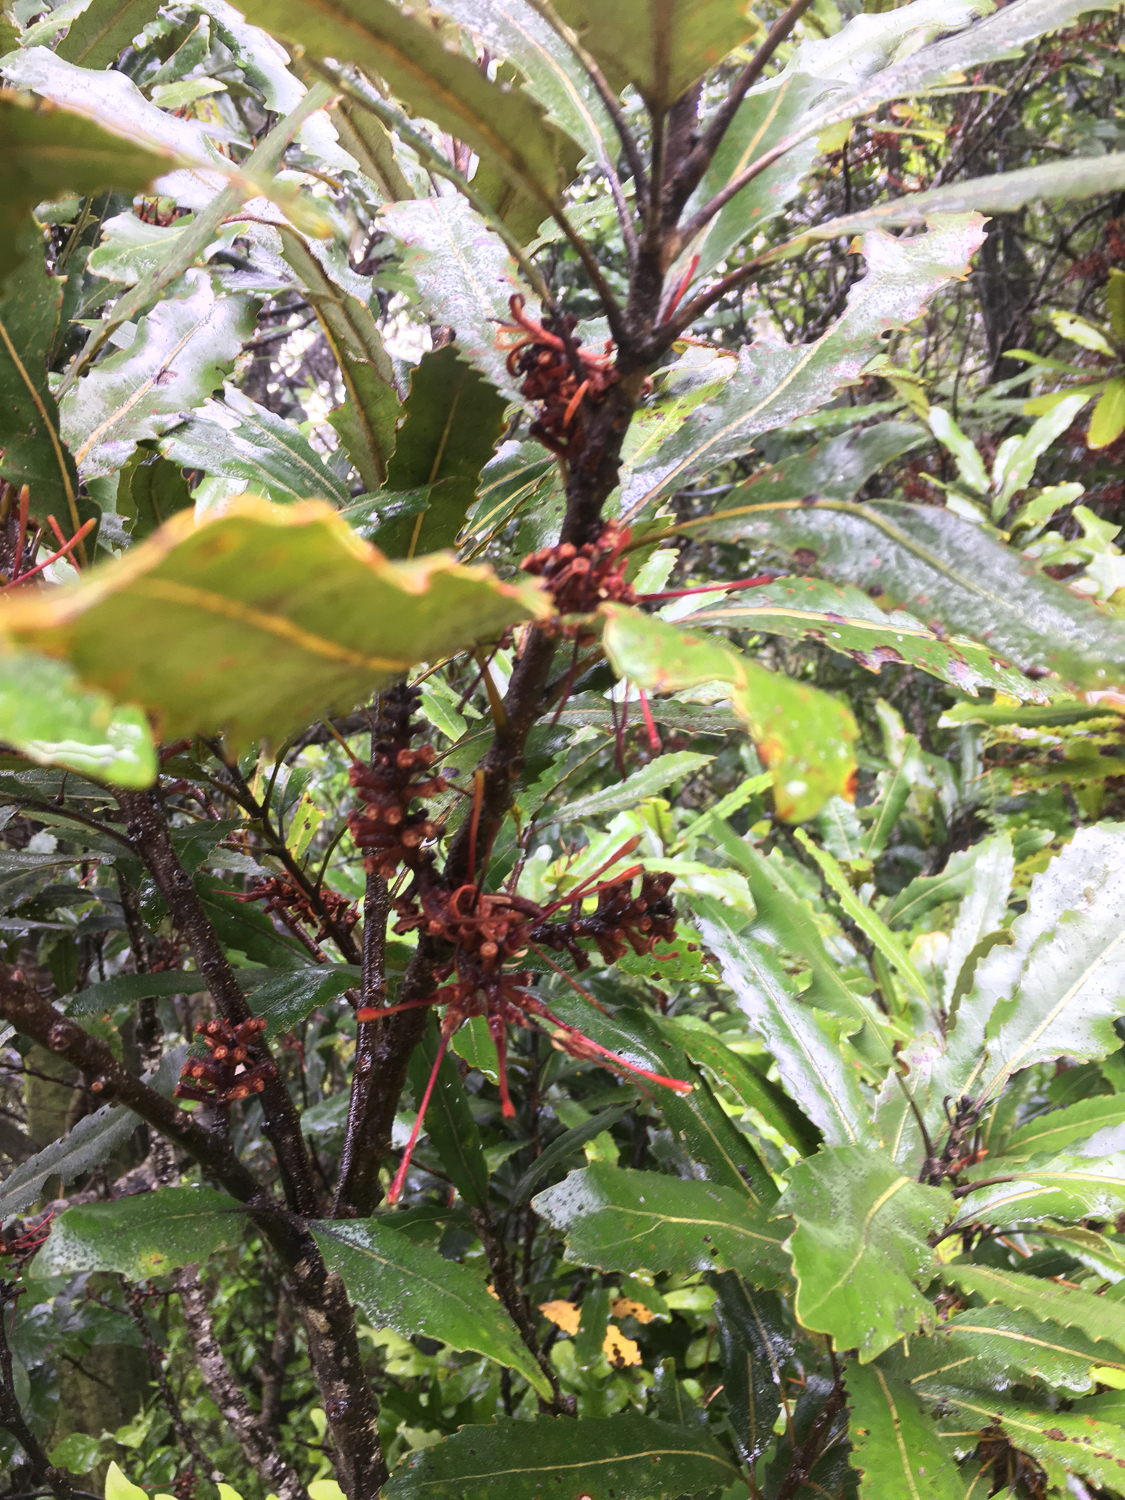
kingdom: Plantae
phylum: Tracheophyta
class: Magnoliopsida
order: Proteales
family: Proteaceae
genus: Knightia
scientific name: Knightia excelsa
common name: New zealand-honeysuckle
